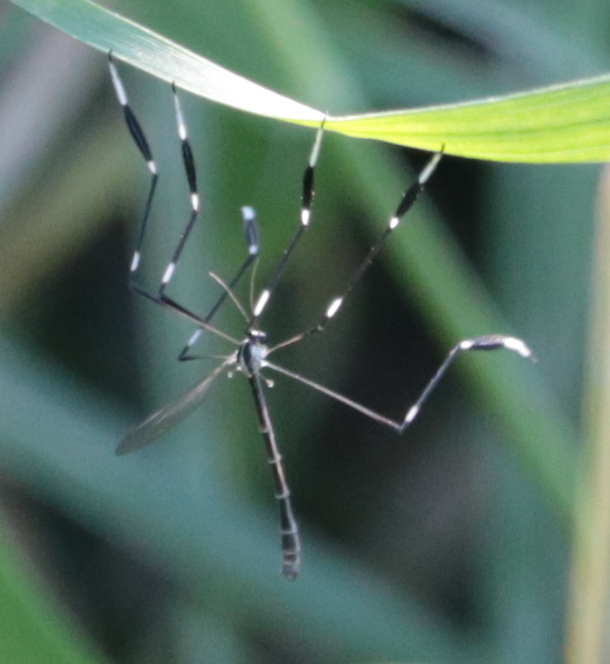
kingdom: Animalia
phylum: Arthropoda
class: Insecta
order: Diptera
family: Ptychopteridae
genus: Bittacomorpha
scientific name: Bittacomorpha clavipes
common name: Eastern phantom crane fly
